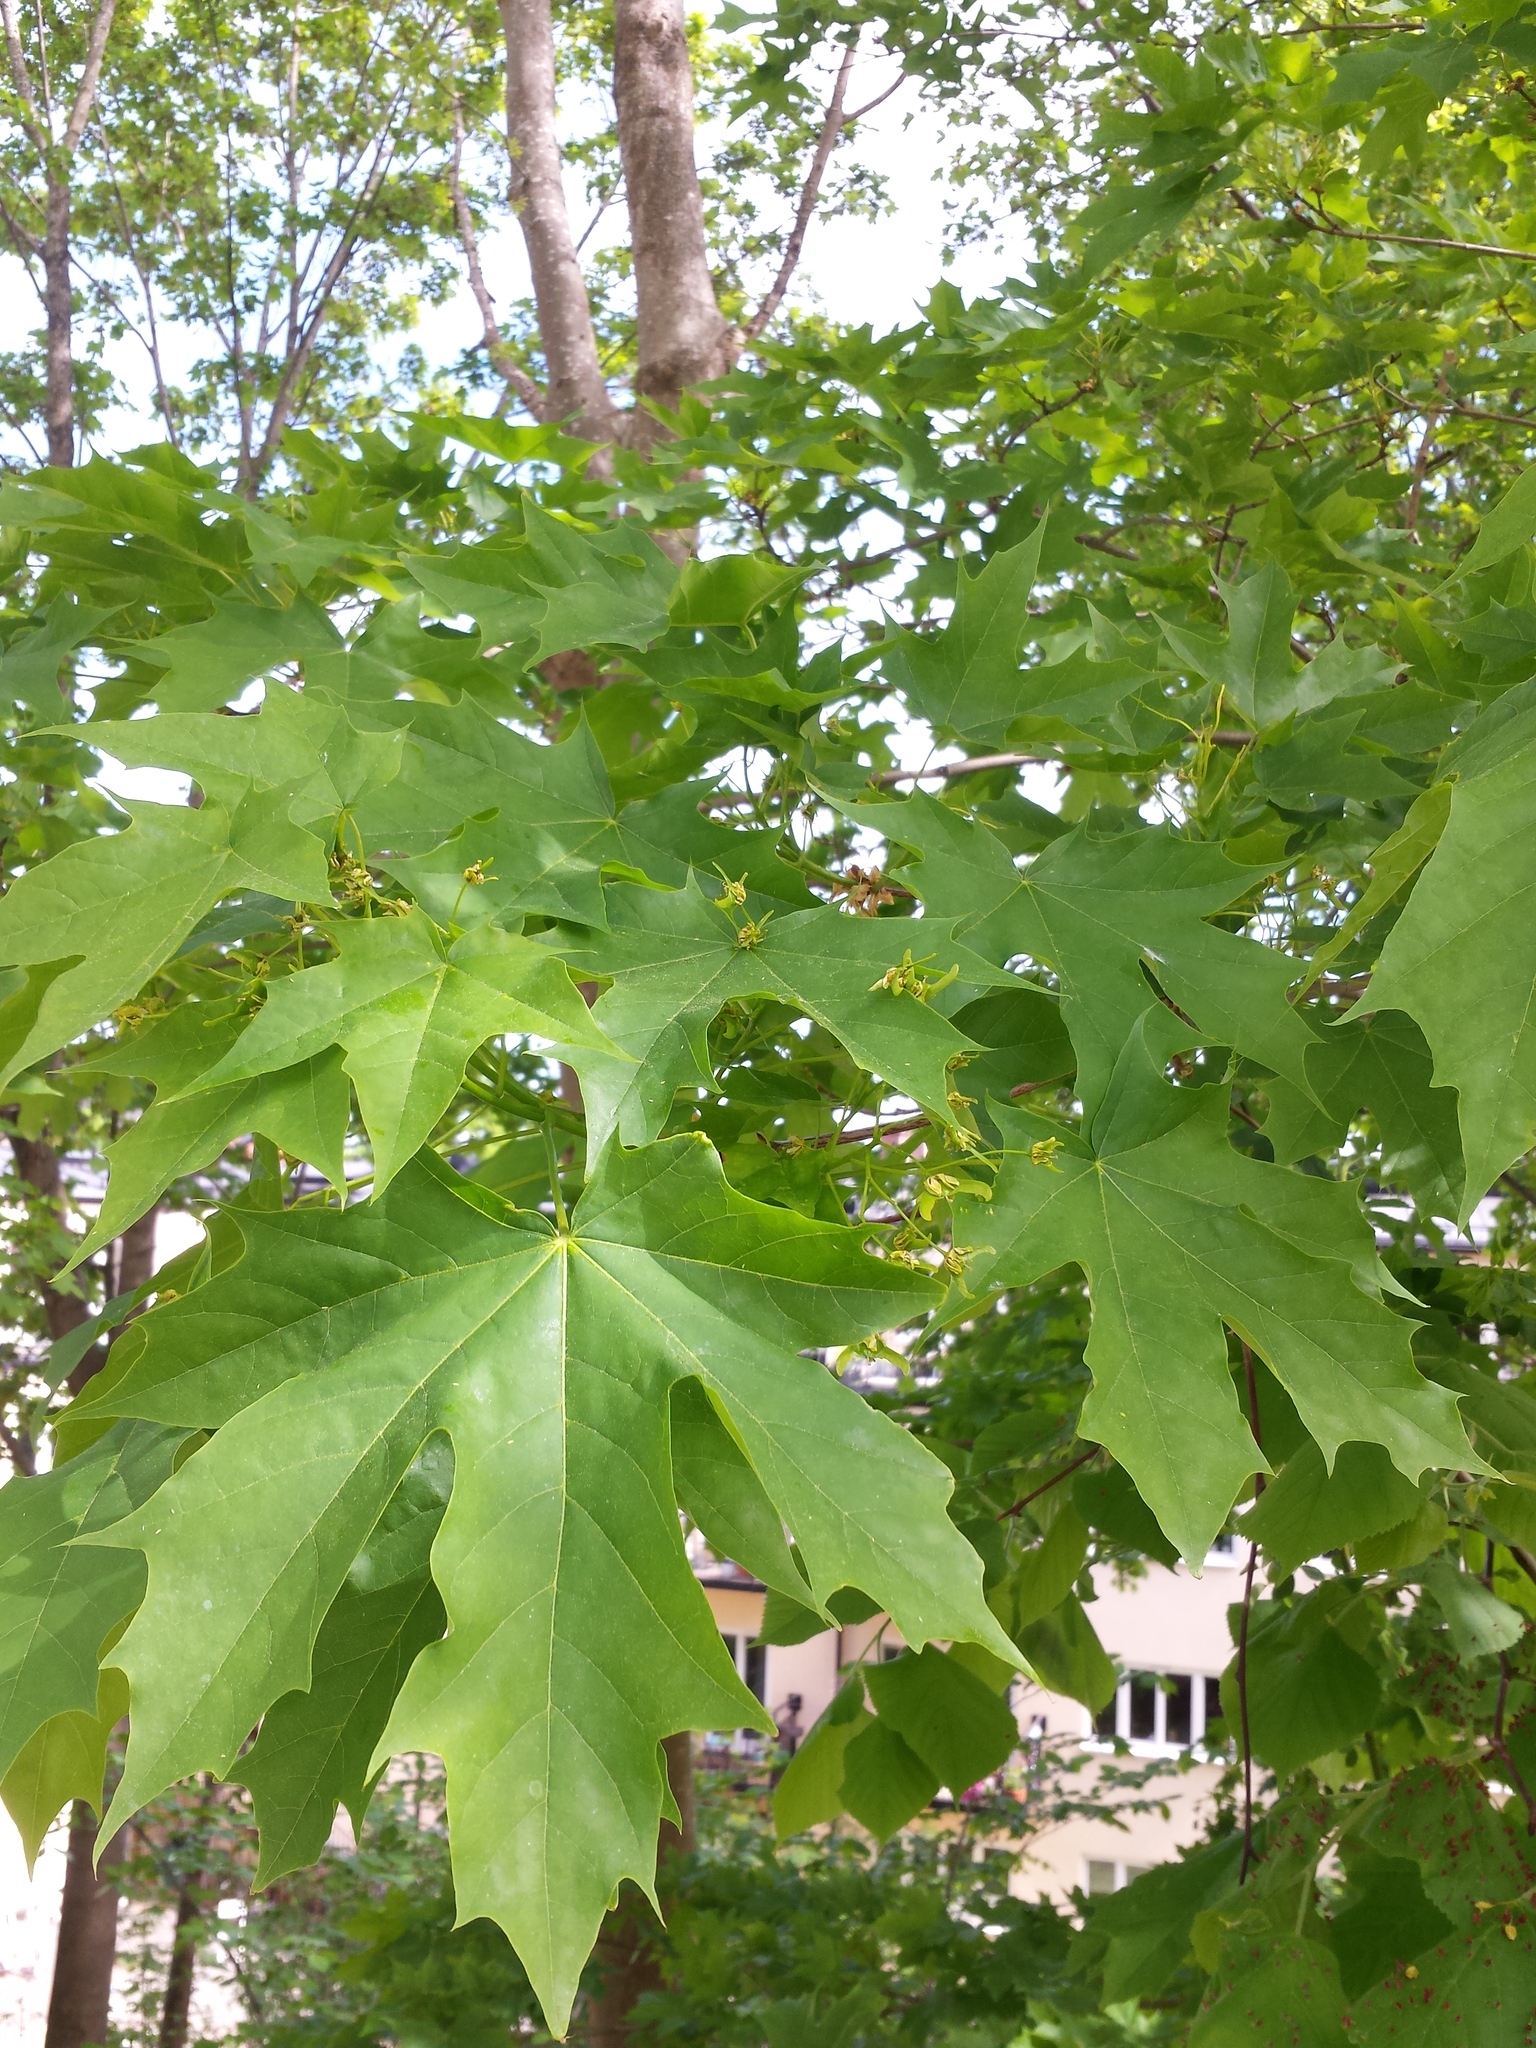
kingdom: Plantae
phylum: Tracheophyta
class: Magnoliopsida
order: Sapindales
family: Sapindaceae
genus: Acer
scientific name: Acer platanoides
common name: Norway maple
